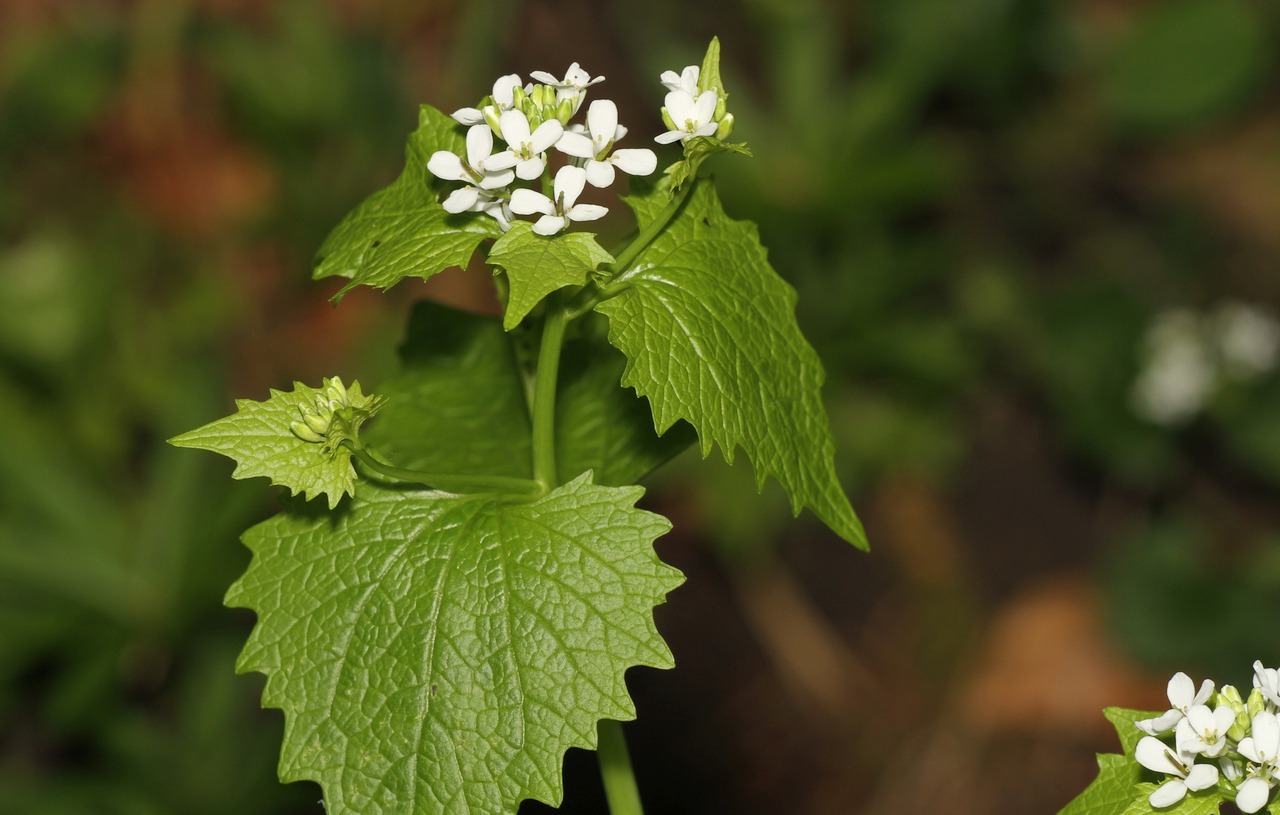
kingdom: Plantae
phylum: Tracheophyta
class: Magnoliopsida
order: Brassicales
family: Brassicaceae
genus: Alliaria
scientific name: Alliaria petiolata
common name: Garlic mustard
